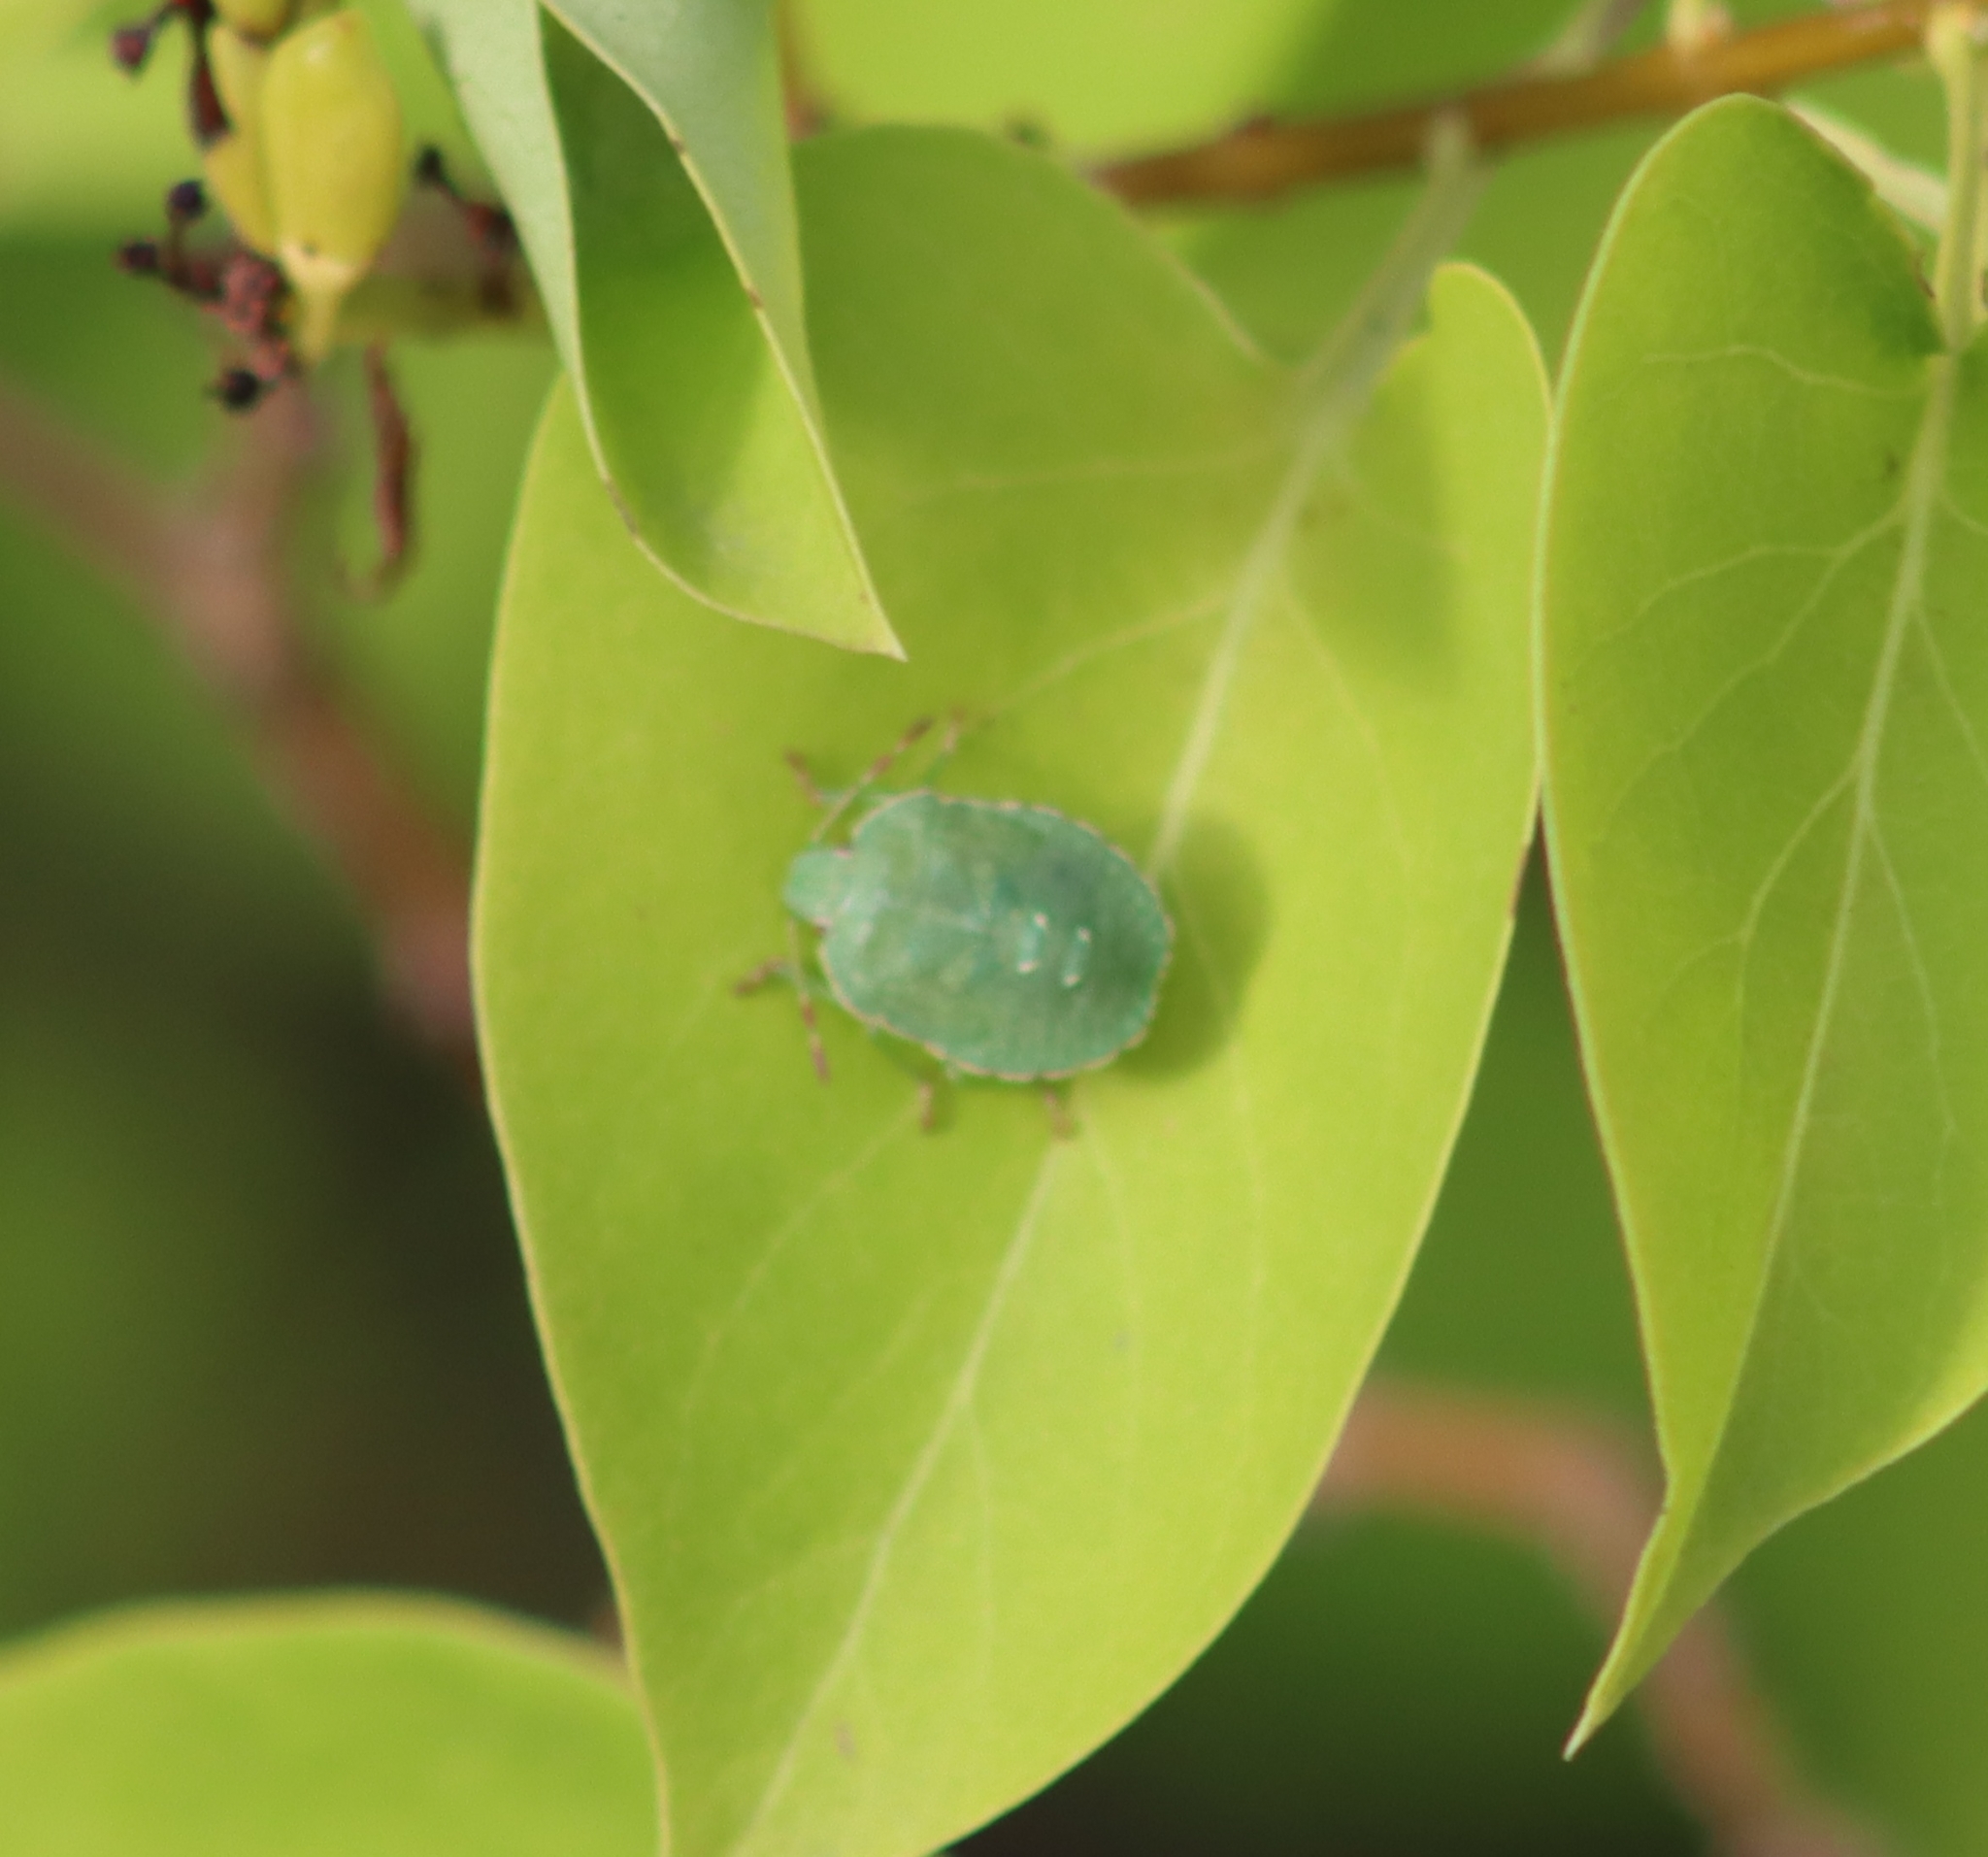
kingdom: Animalia
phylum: Arthropoda
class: Insecta
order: Hemiptera
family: Pentatomidae
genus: Palomena
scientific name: Palomena prasina
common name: Green shieldbug
